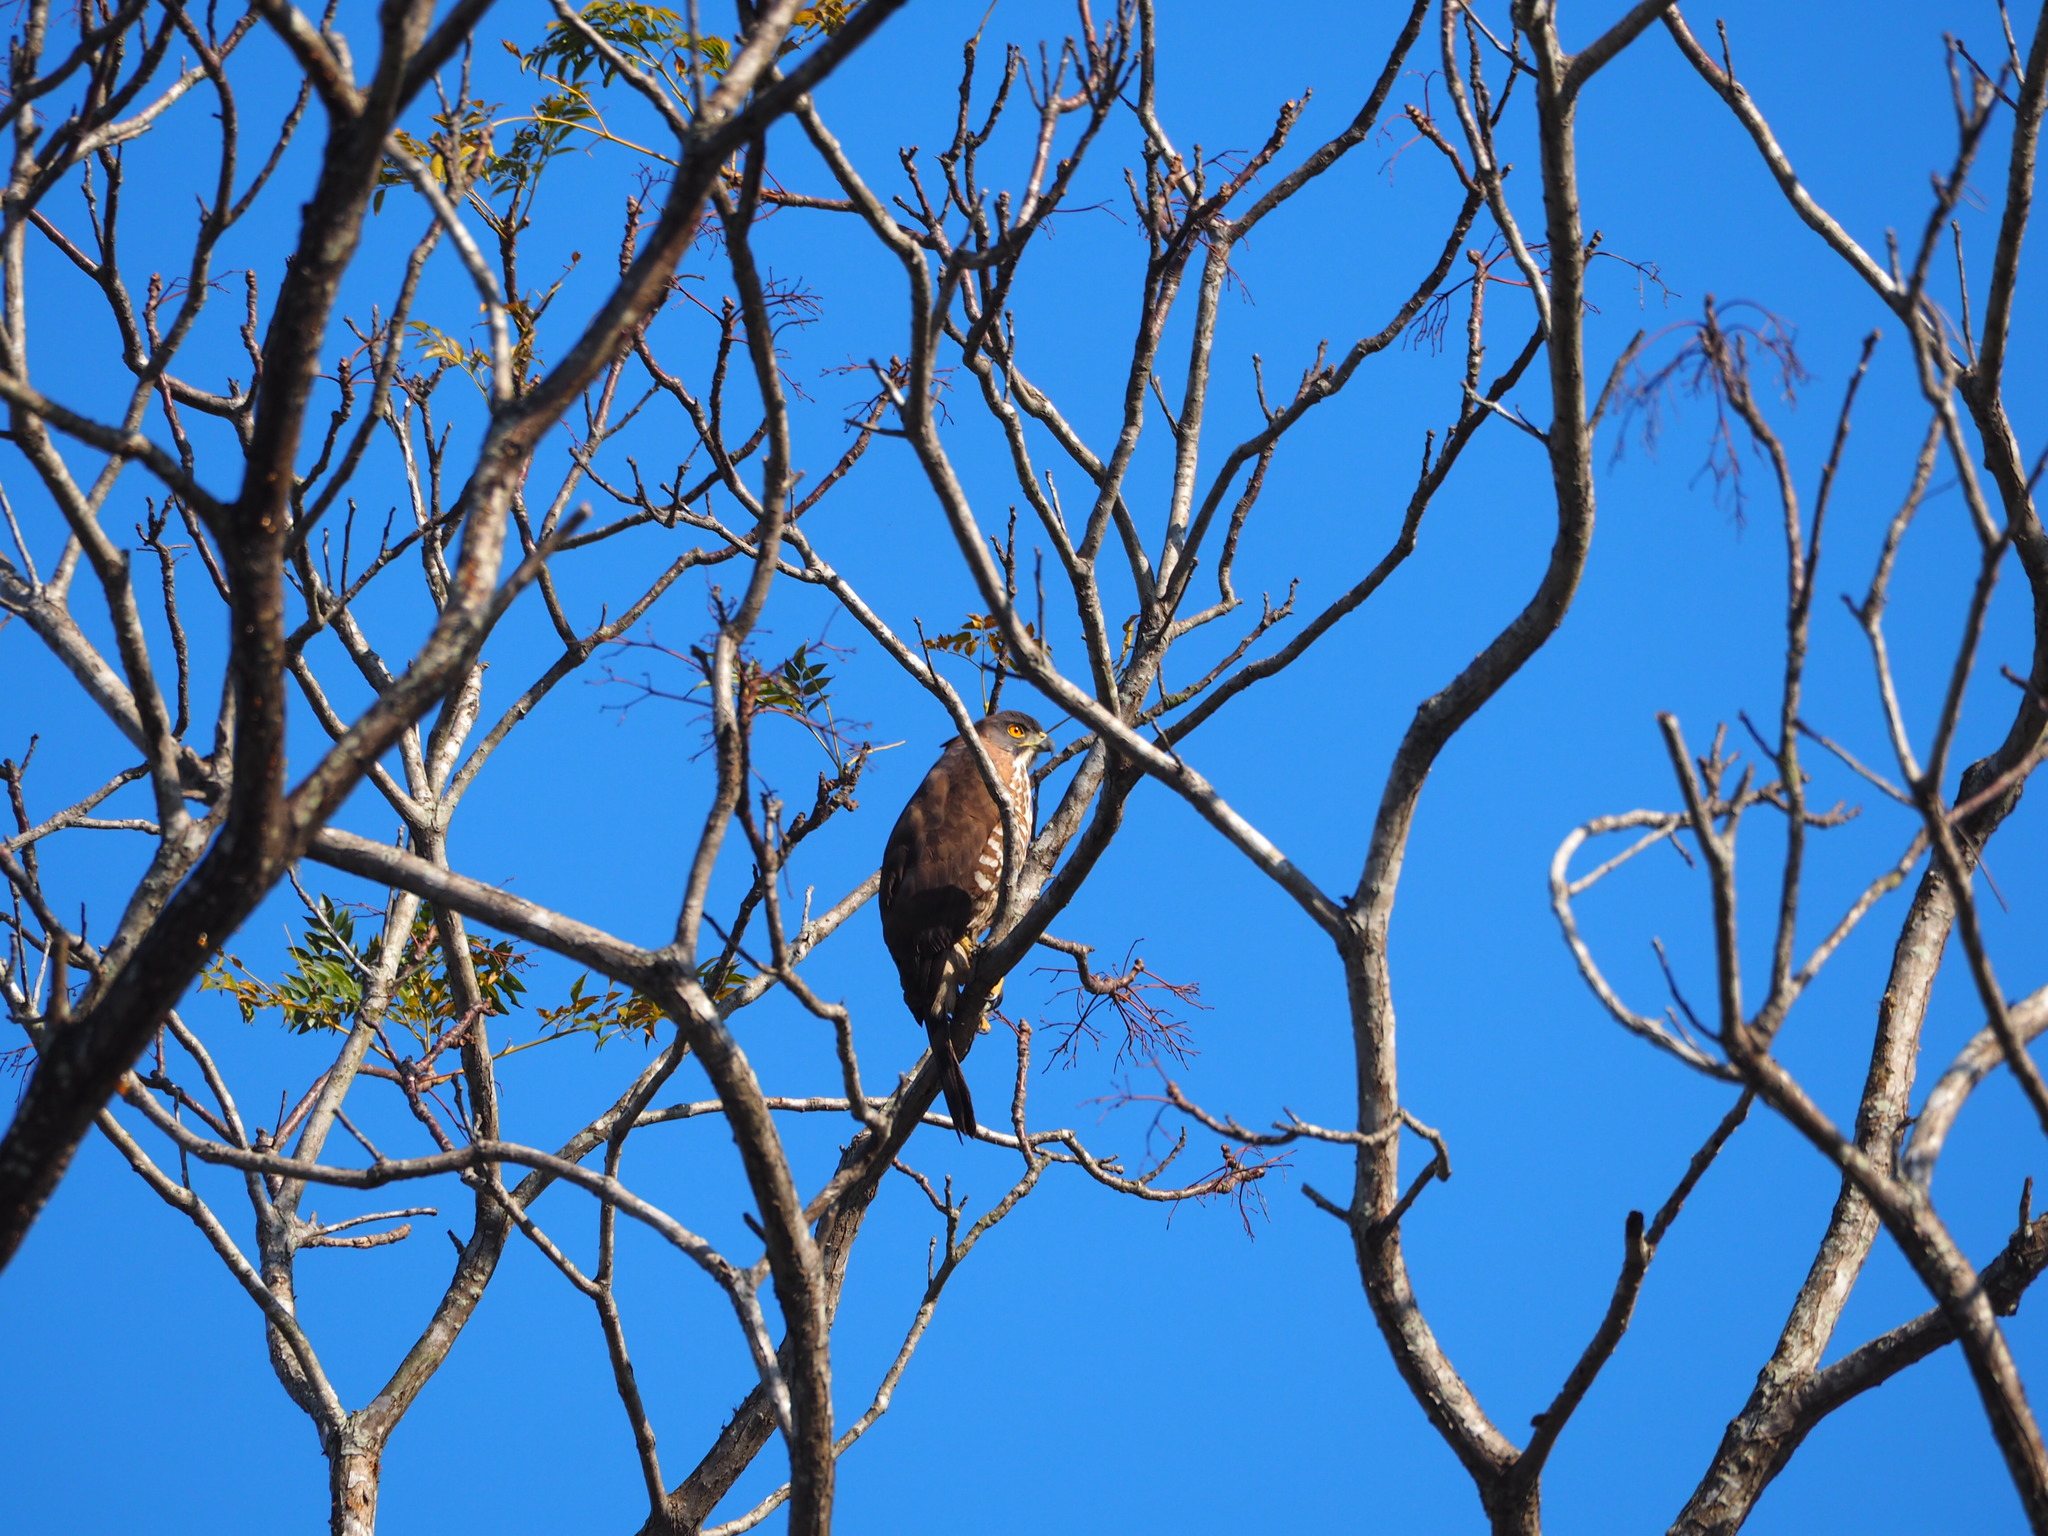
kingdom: Animalia
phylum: Chordata
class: Aves
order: Accipitriformes
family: Accipitridae
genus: Accipiter
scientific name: Accipiter trivirgatus
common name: Crested goshawk
